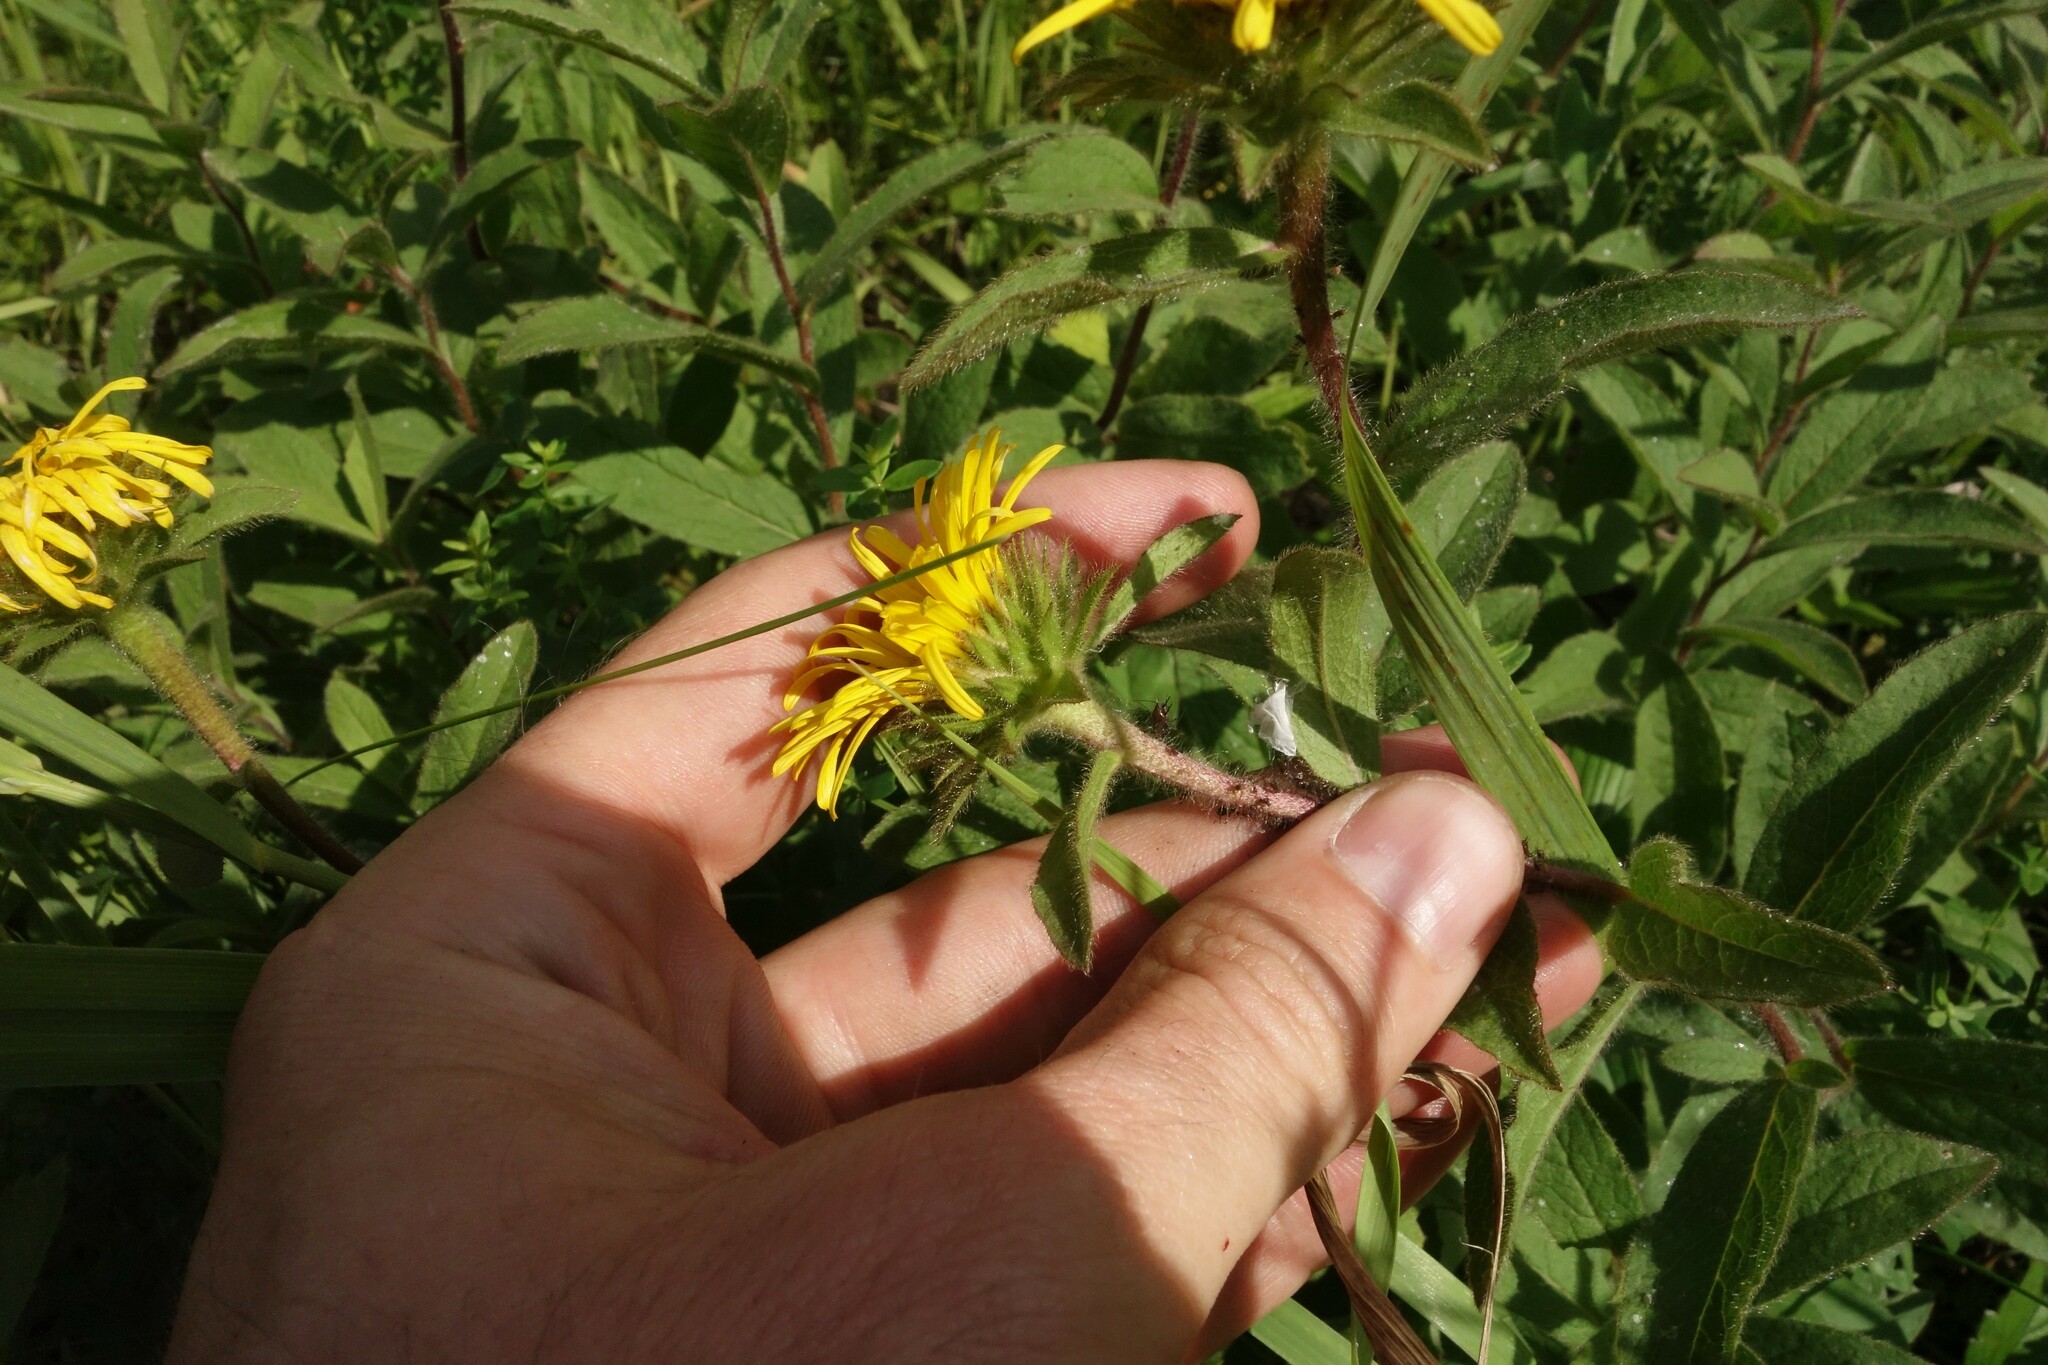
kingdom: Plantae
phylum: Tracheophyta
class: Magnoliopsida
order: Asterales
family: Asteraceae
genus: Pentanema
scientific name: Pentanema hirtum
